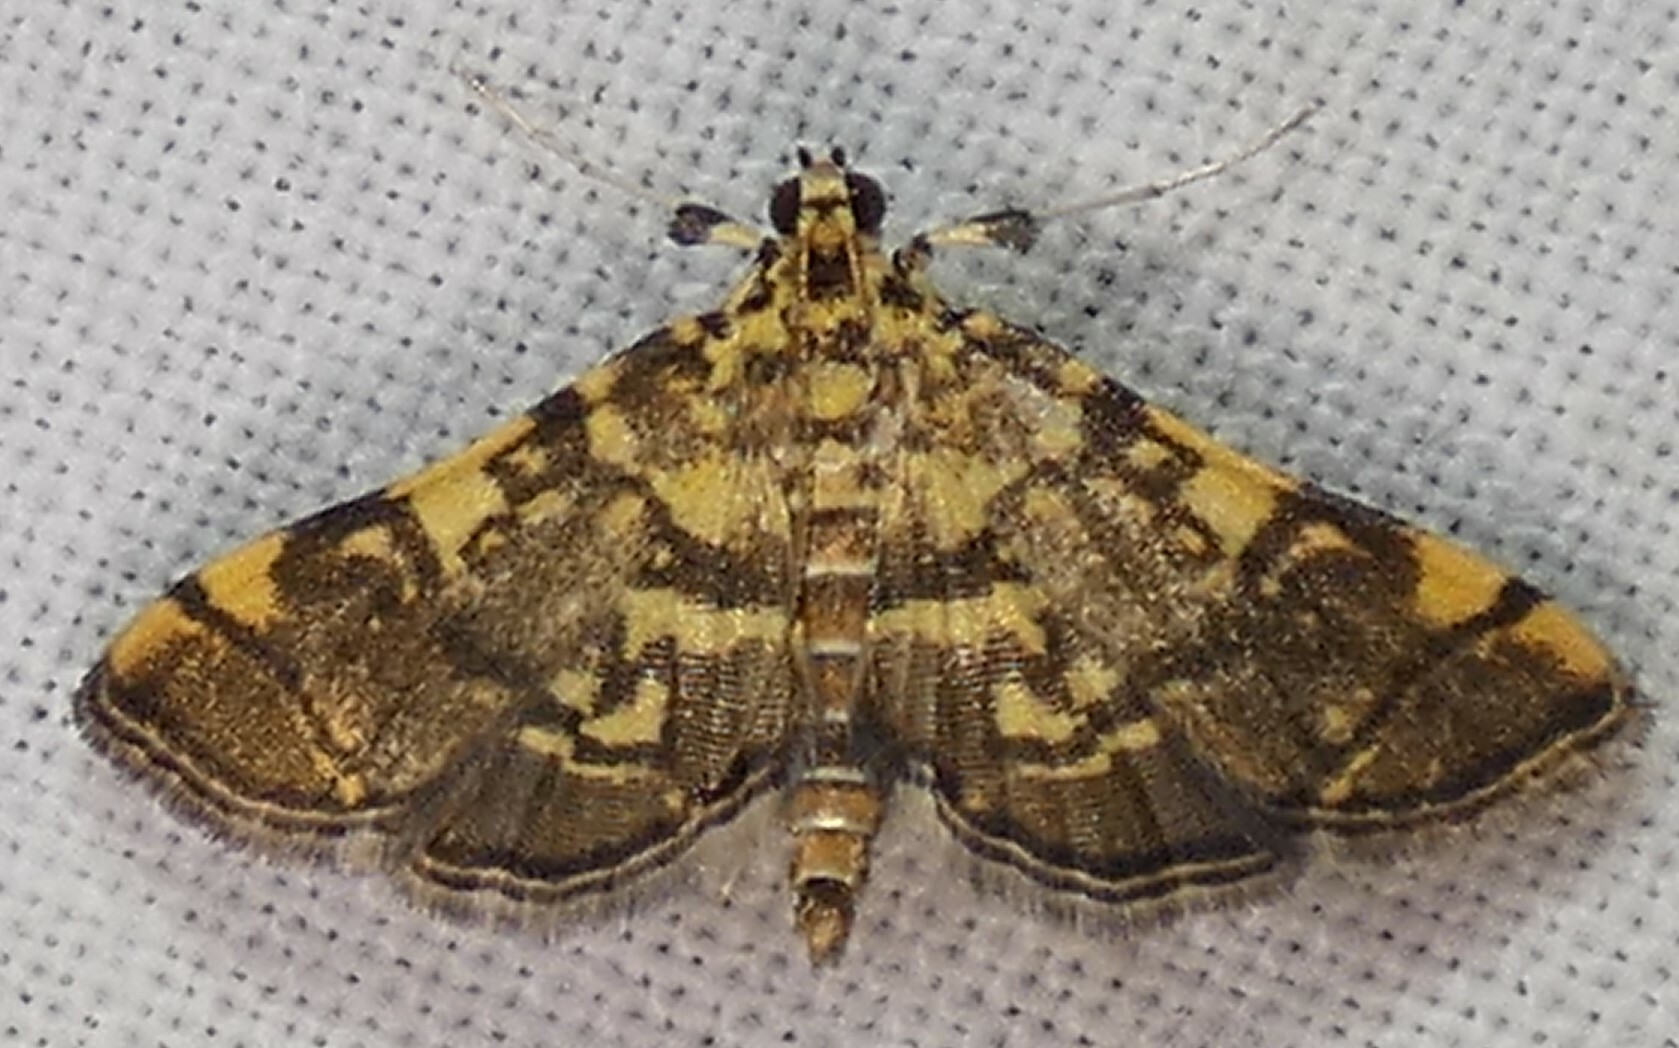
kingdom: Animalia
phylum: Arthropoda
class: Insecta
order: Lepidoptera
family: Crambidae
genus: Apogeshna
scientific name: Apogeshna stenialis
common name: Checkered apogeshna moth
